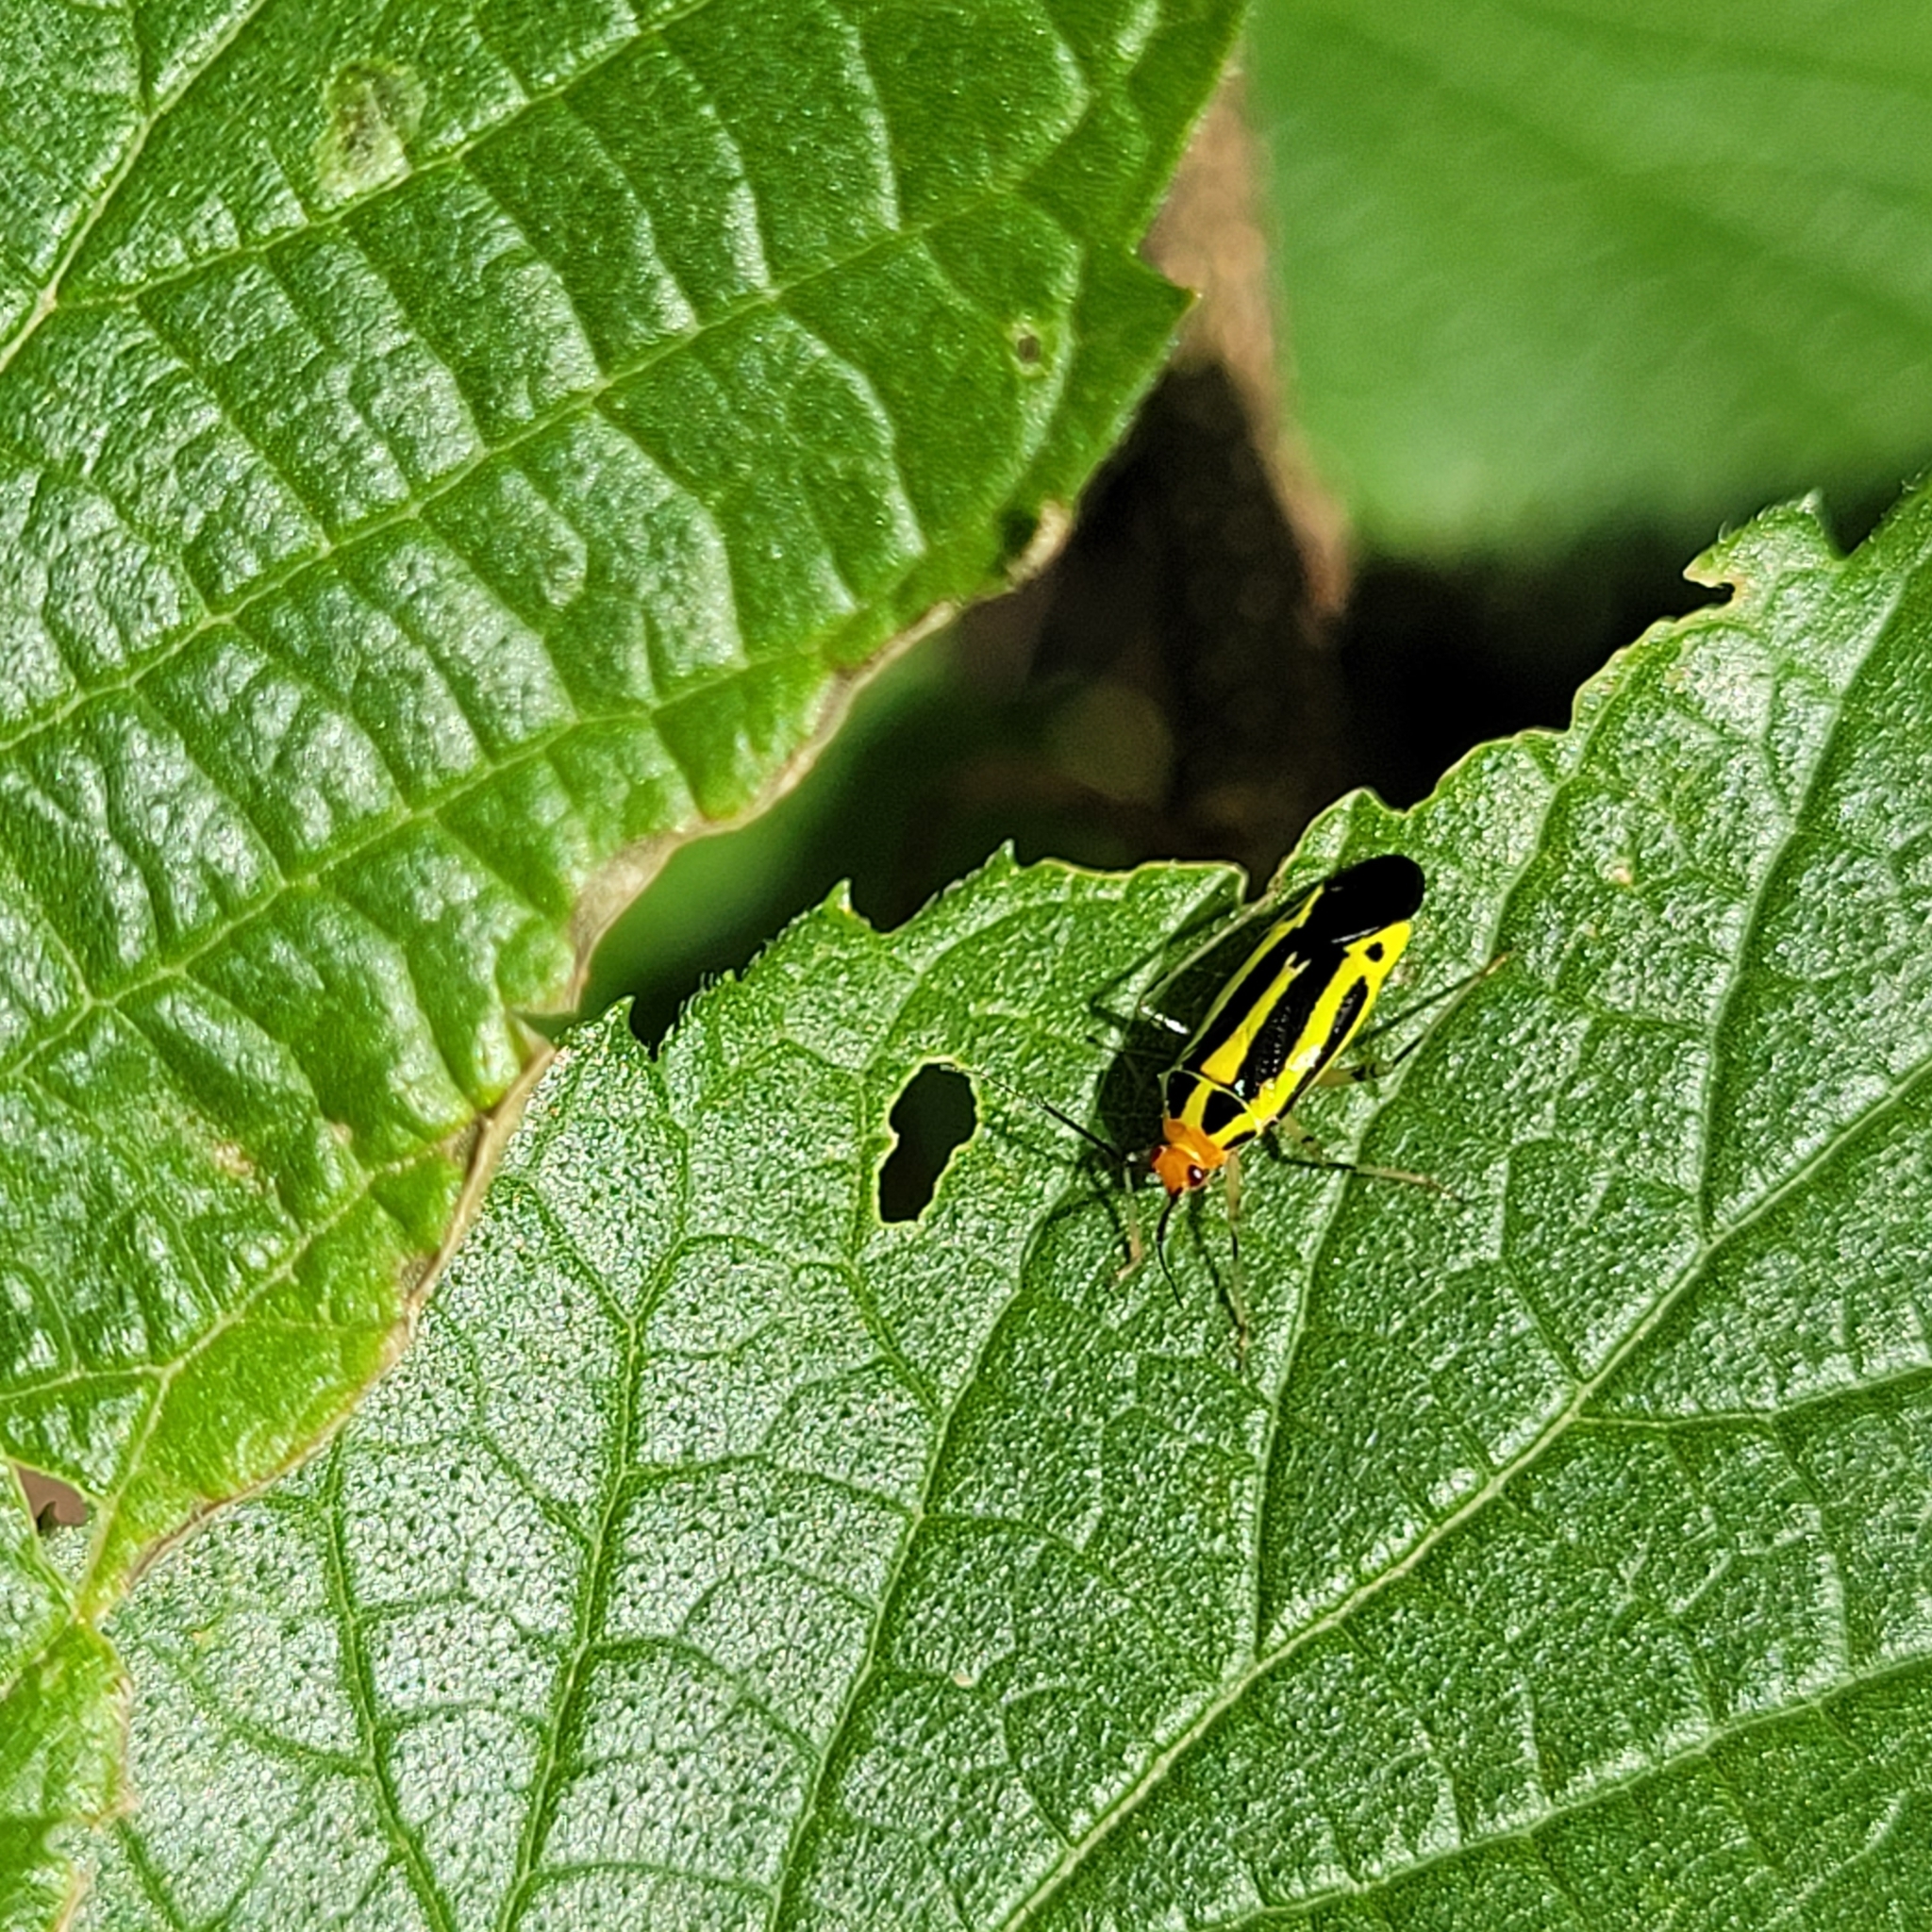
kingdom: Animalia
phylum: Arthropoda
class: Insecta
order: Hemiptera
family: Miridae
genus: Poecilocapsus
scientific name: Poecilocapsus lineatus
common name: Four-lined plant bug
